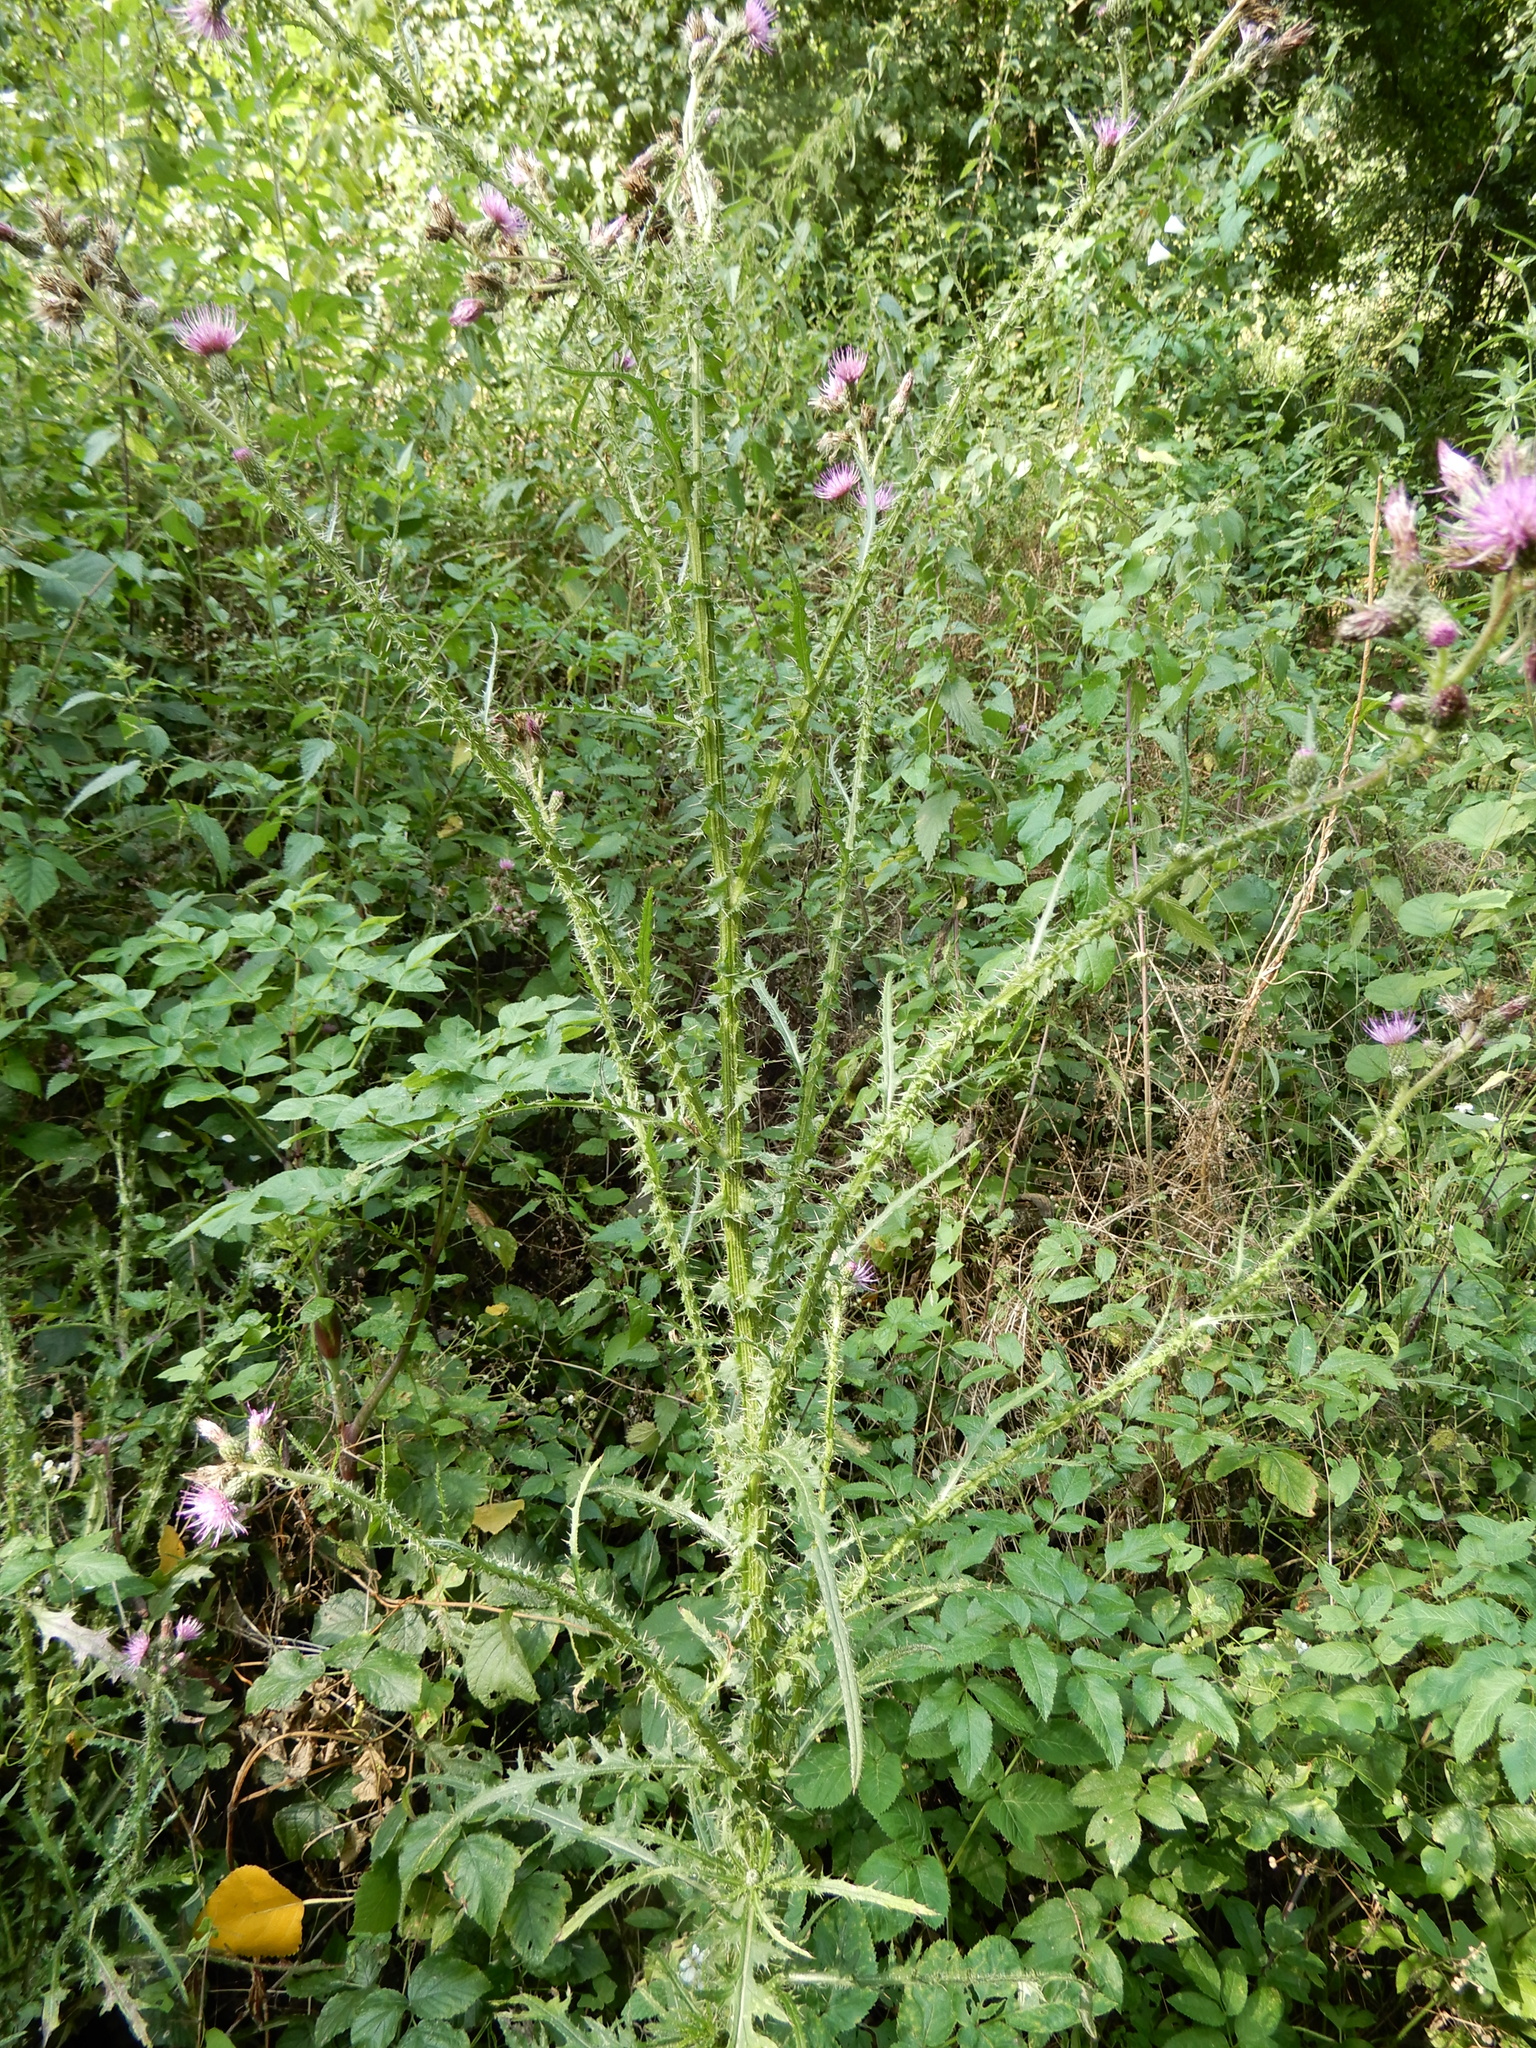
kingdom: Plantae
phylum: Tracheophyta
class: Magnoliopsida
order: Asterales
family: Asteraceae
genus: Cirsium
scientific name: Cirsium palustre
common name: Marsh thistle
